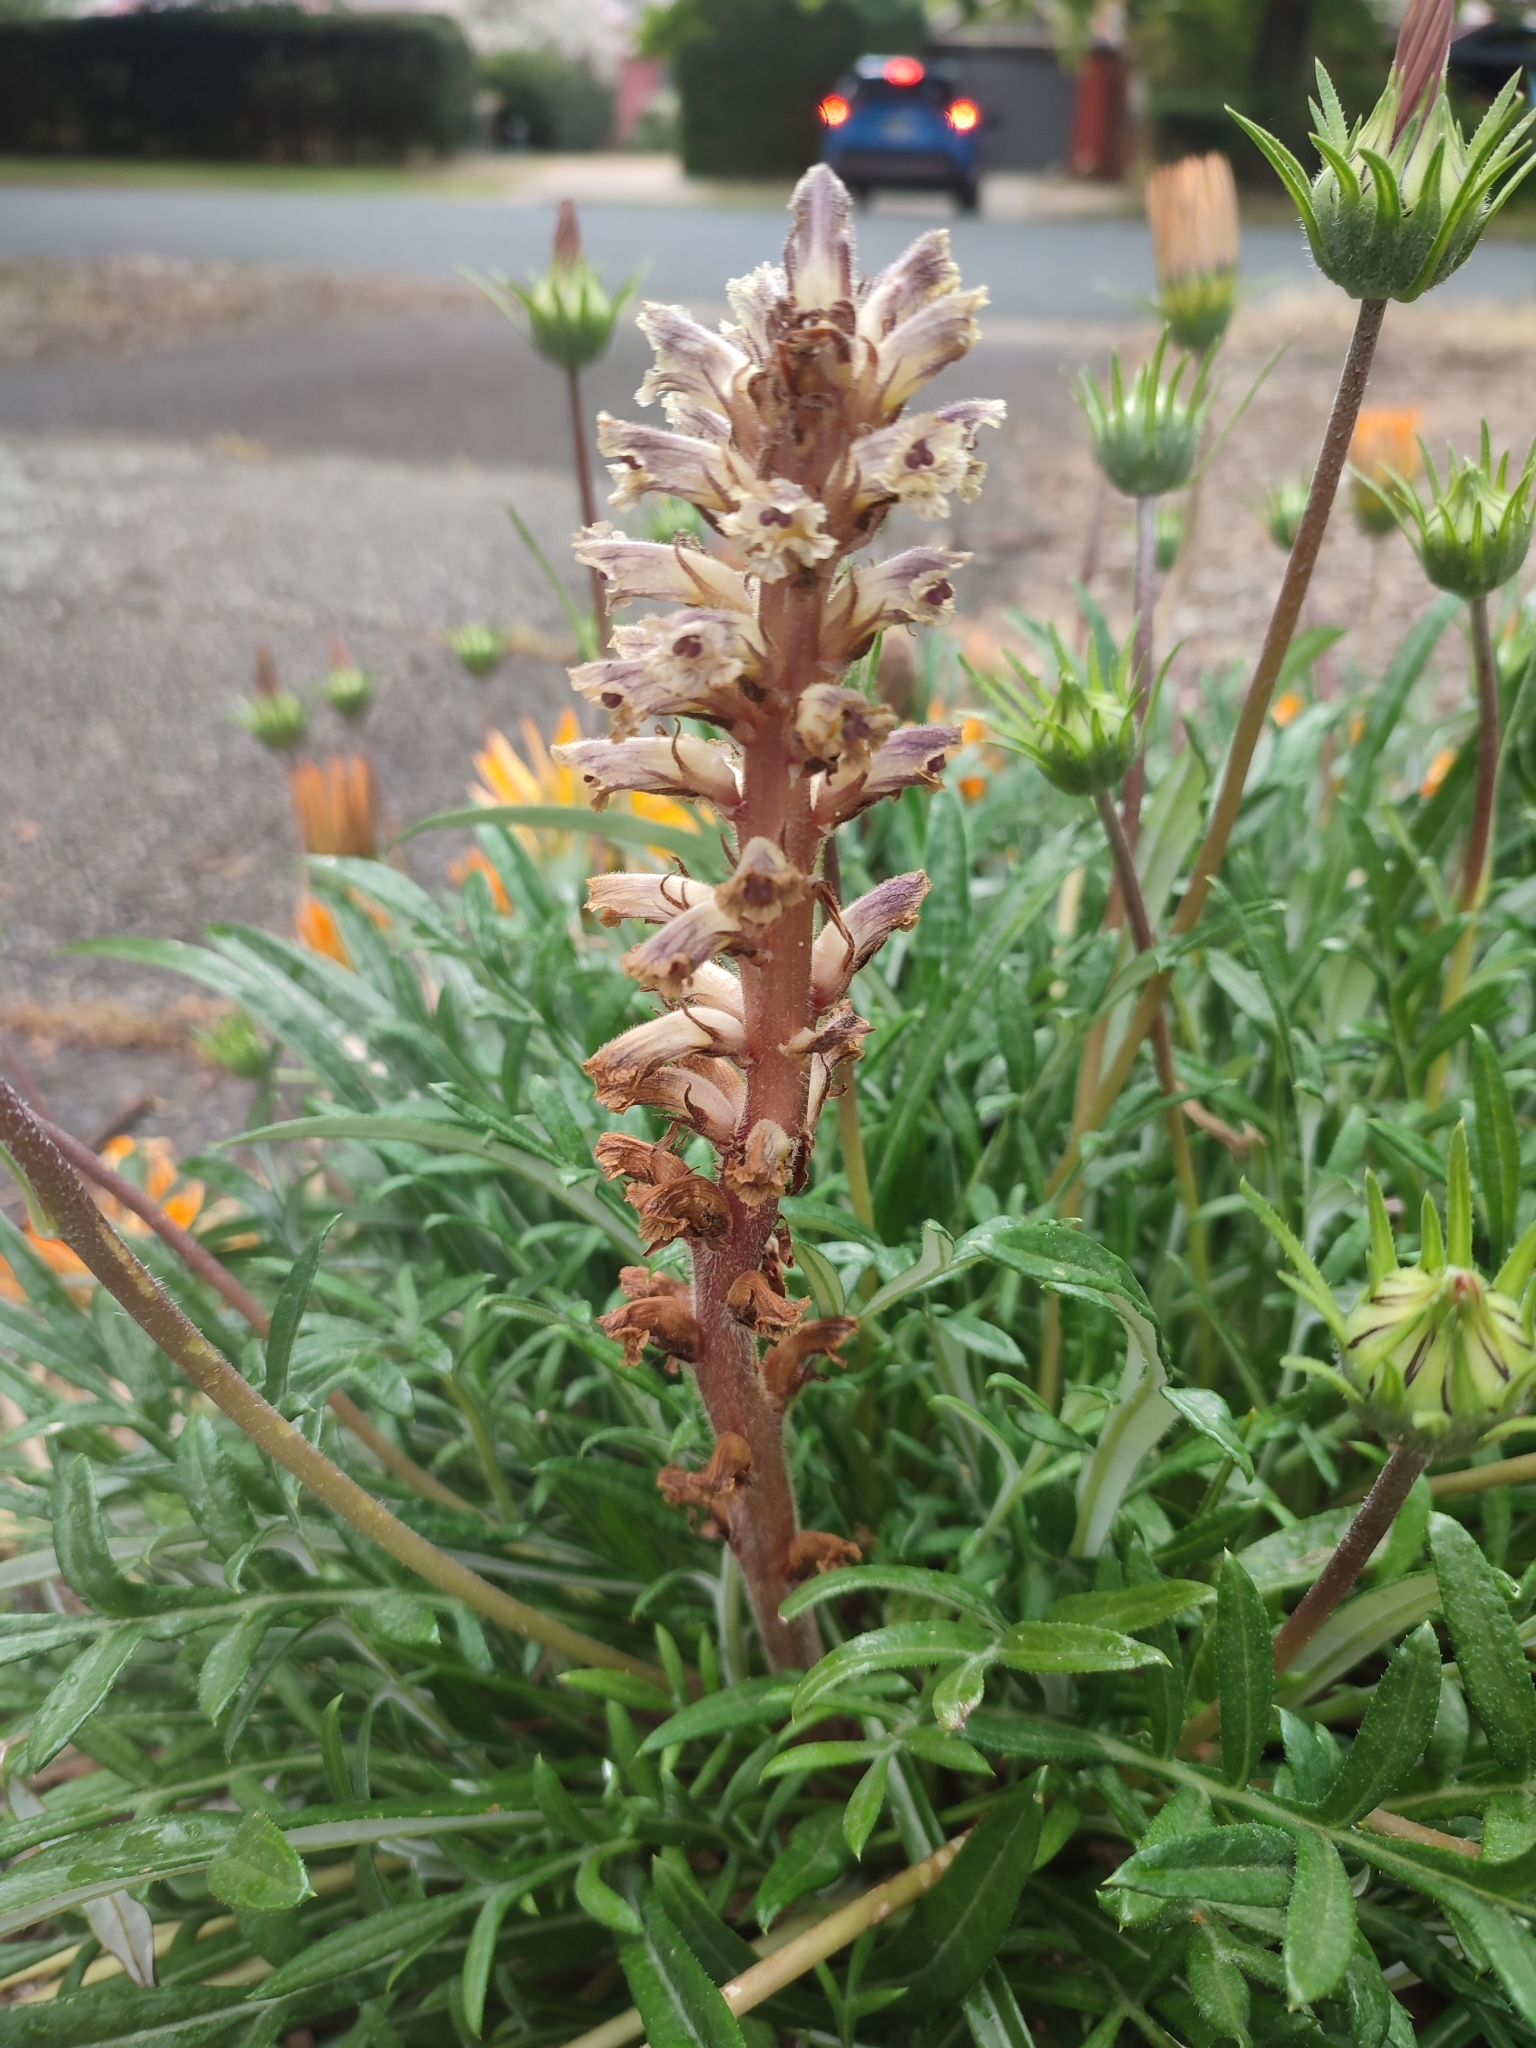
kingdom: Plantae
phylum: Tracheophyta
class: Magnoliopsida
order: Lamiales
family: Orobanchaceae
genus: Orobanche
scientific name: Orobanche minor
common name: Common broomrape
